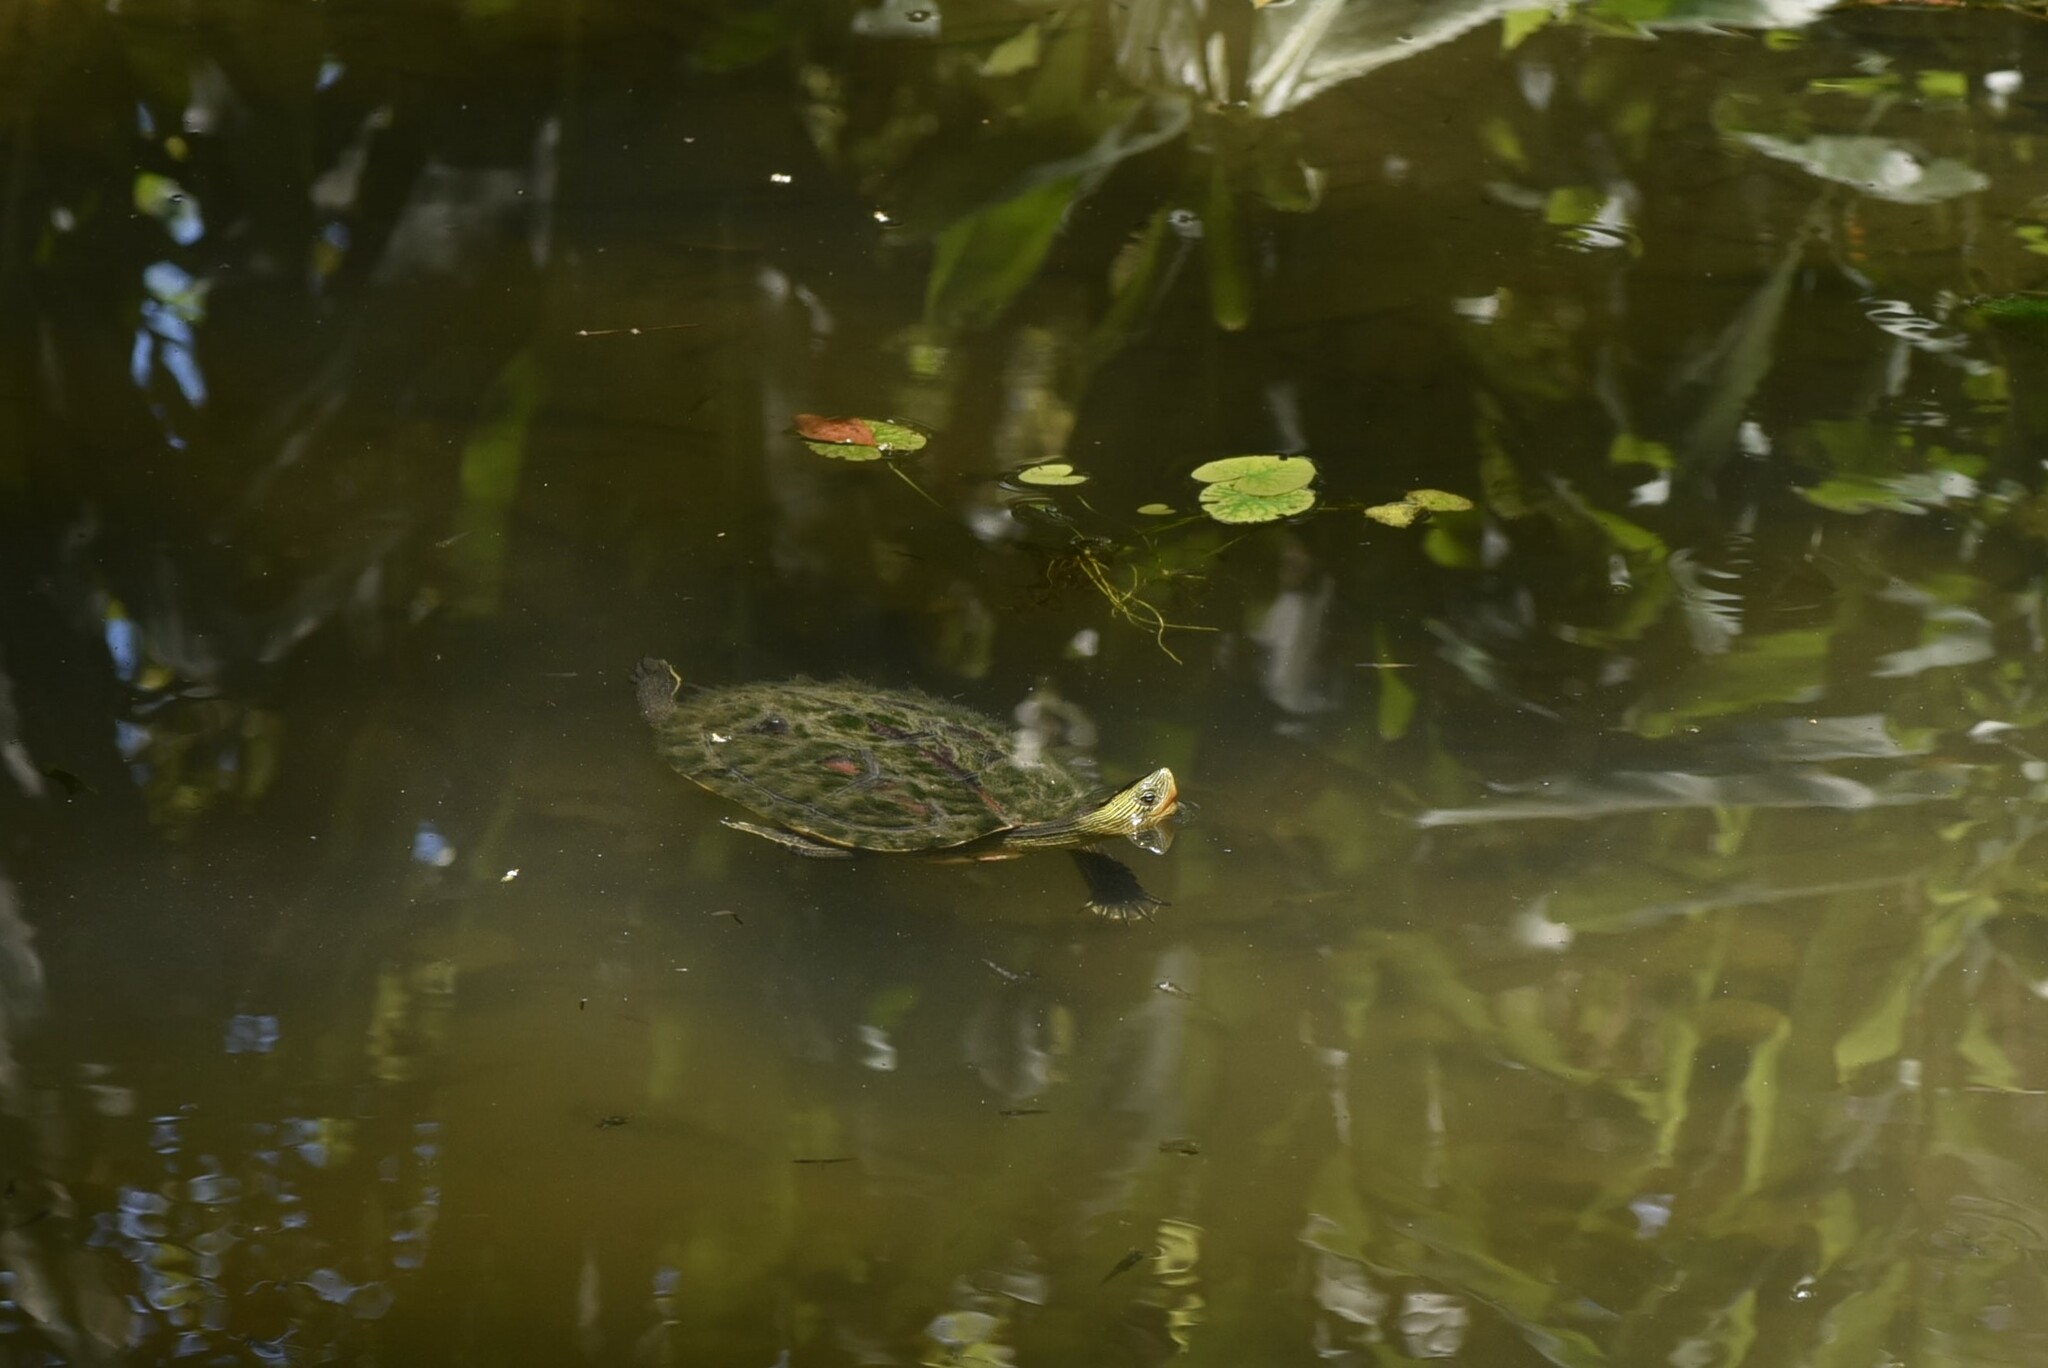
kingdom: Animalia
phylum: Chordata
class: Testudines
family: Geoemydidae
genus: Mauremys
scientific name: Mauremys sinensis
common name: Chinese stripe-necked turtle
